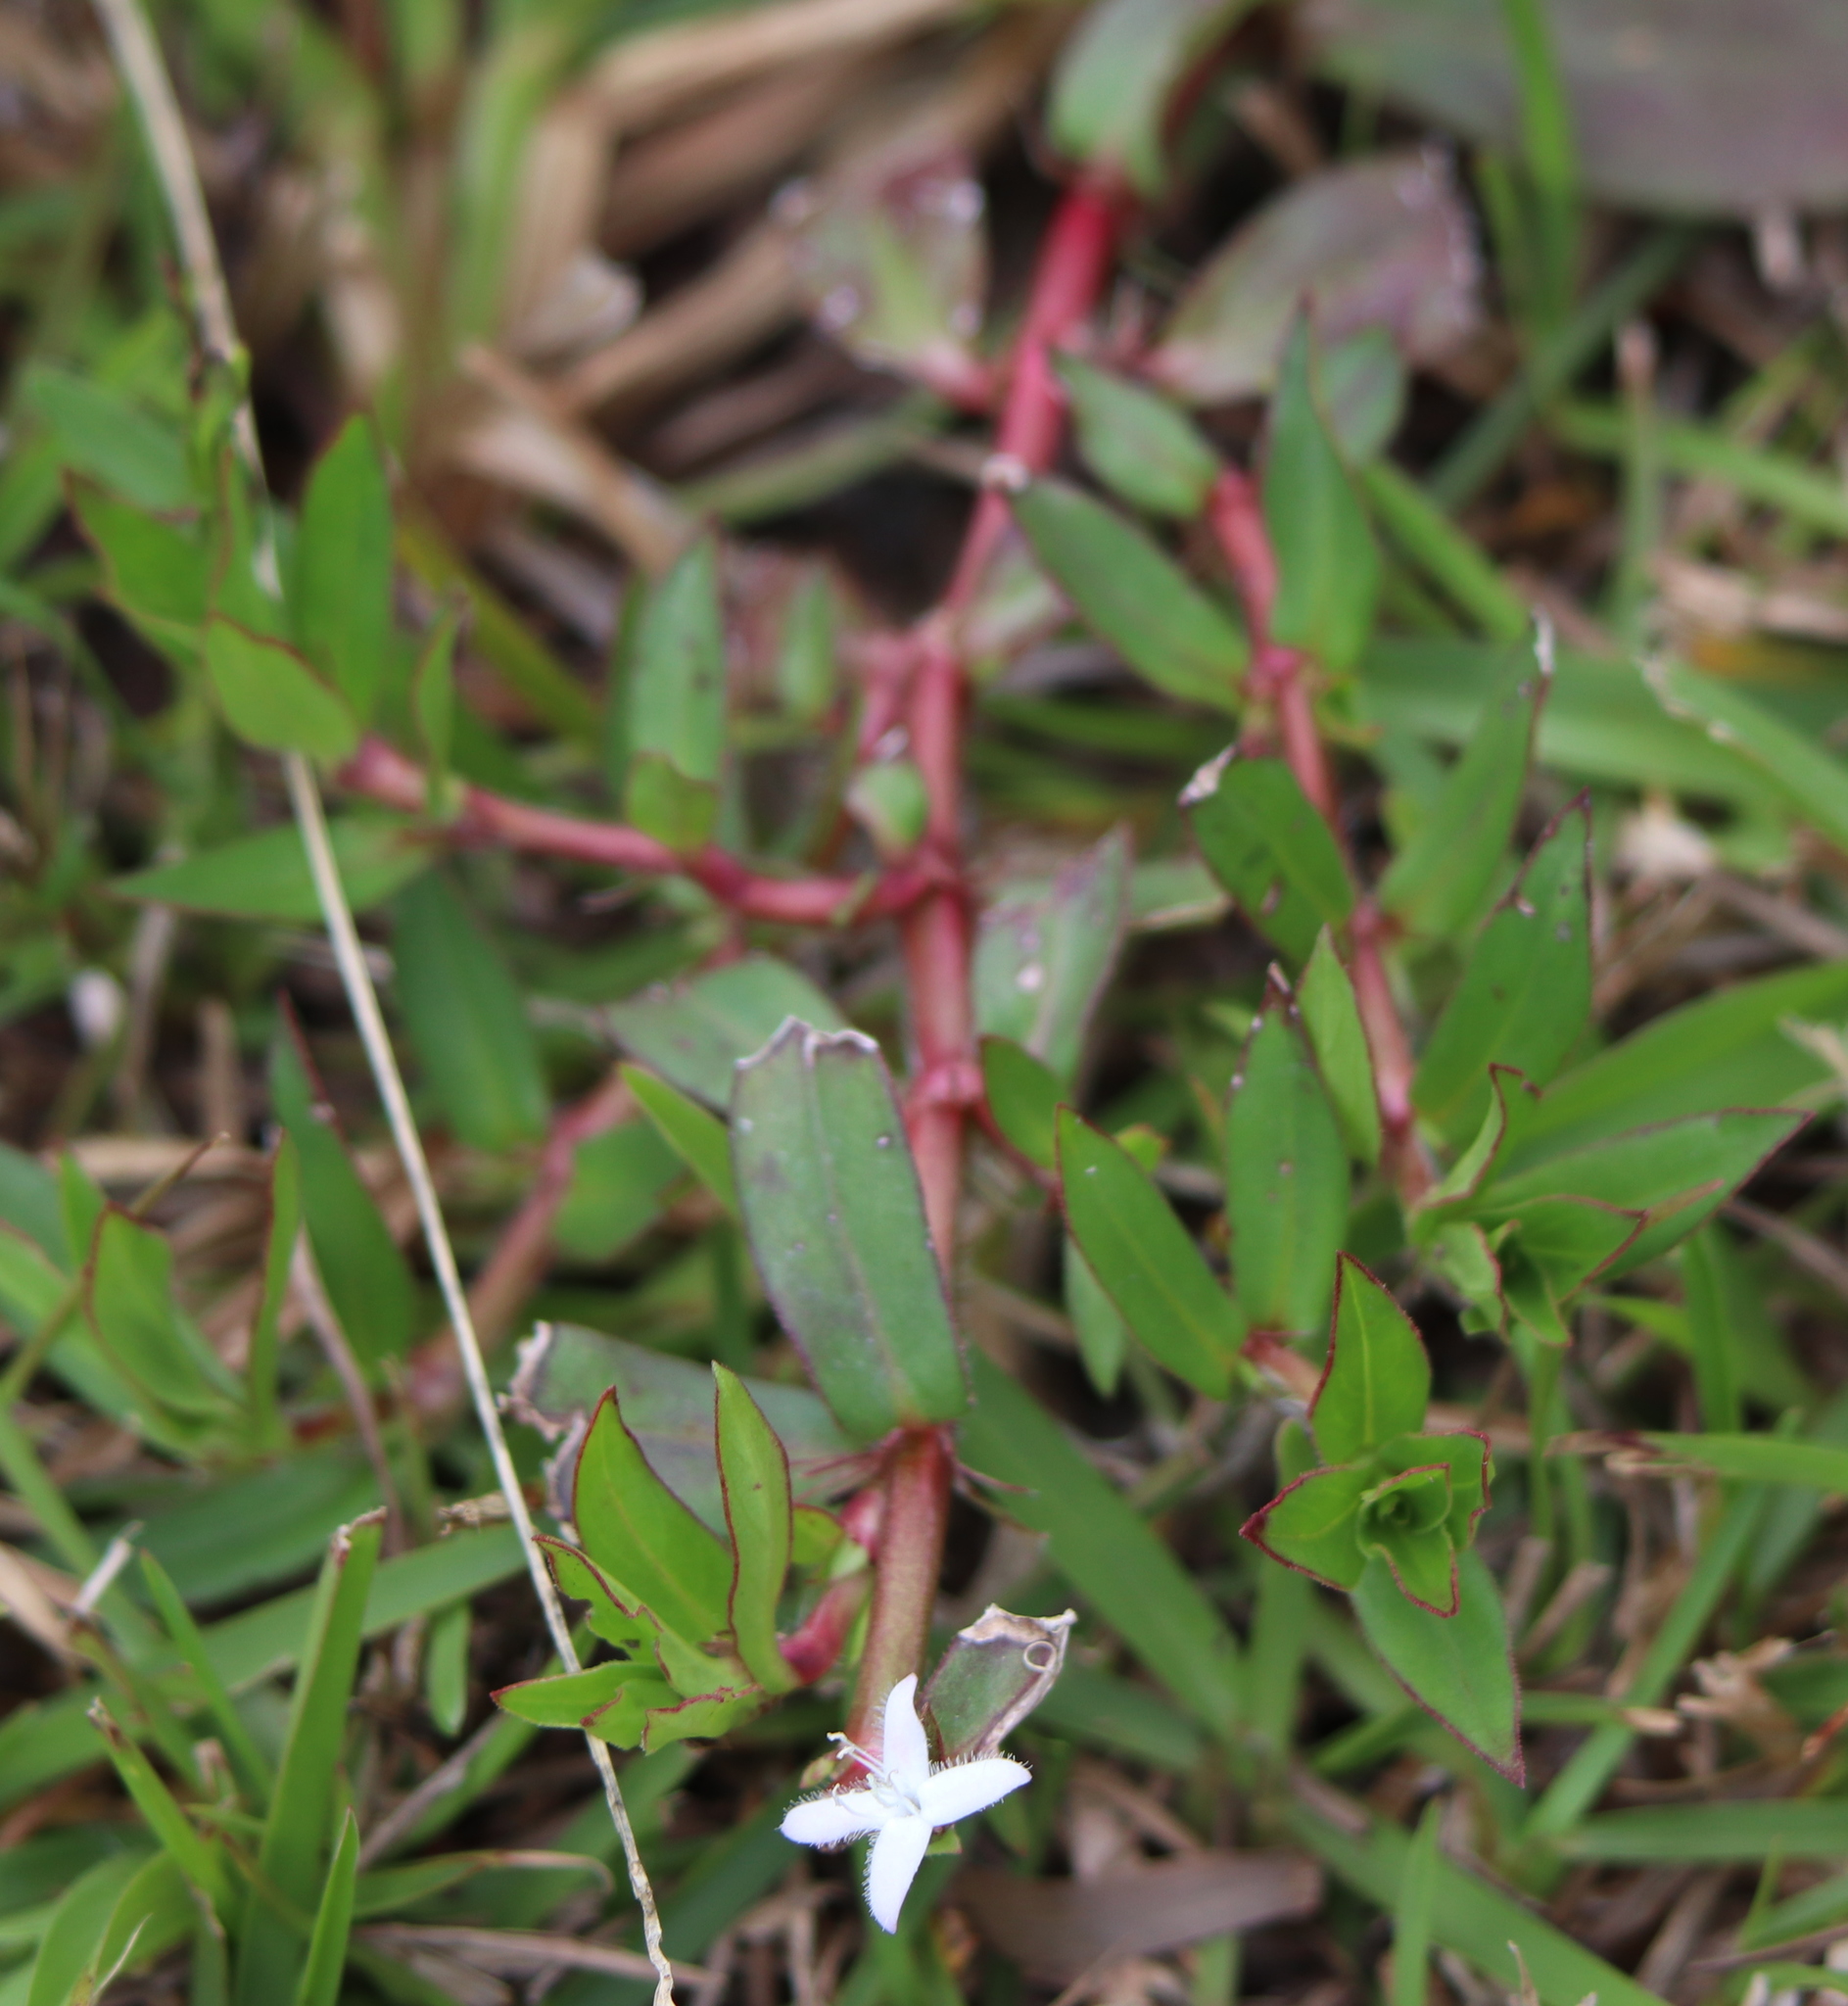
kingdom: Plantae
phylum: Tracheophyta
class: Magnoliopsida
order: Gentianales
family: Rubiaceae
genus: Diodia
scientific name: Diodia virginiana
